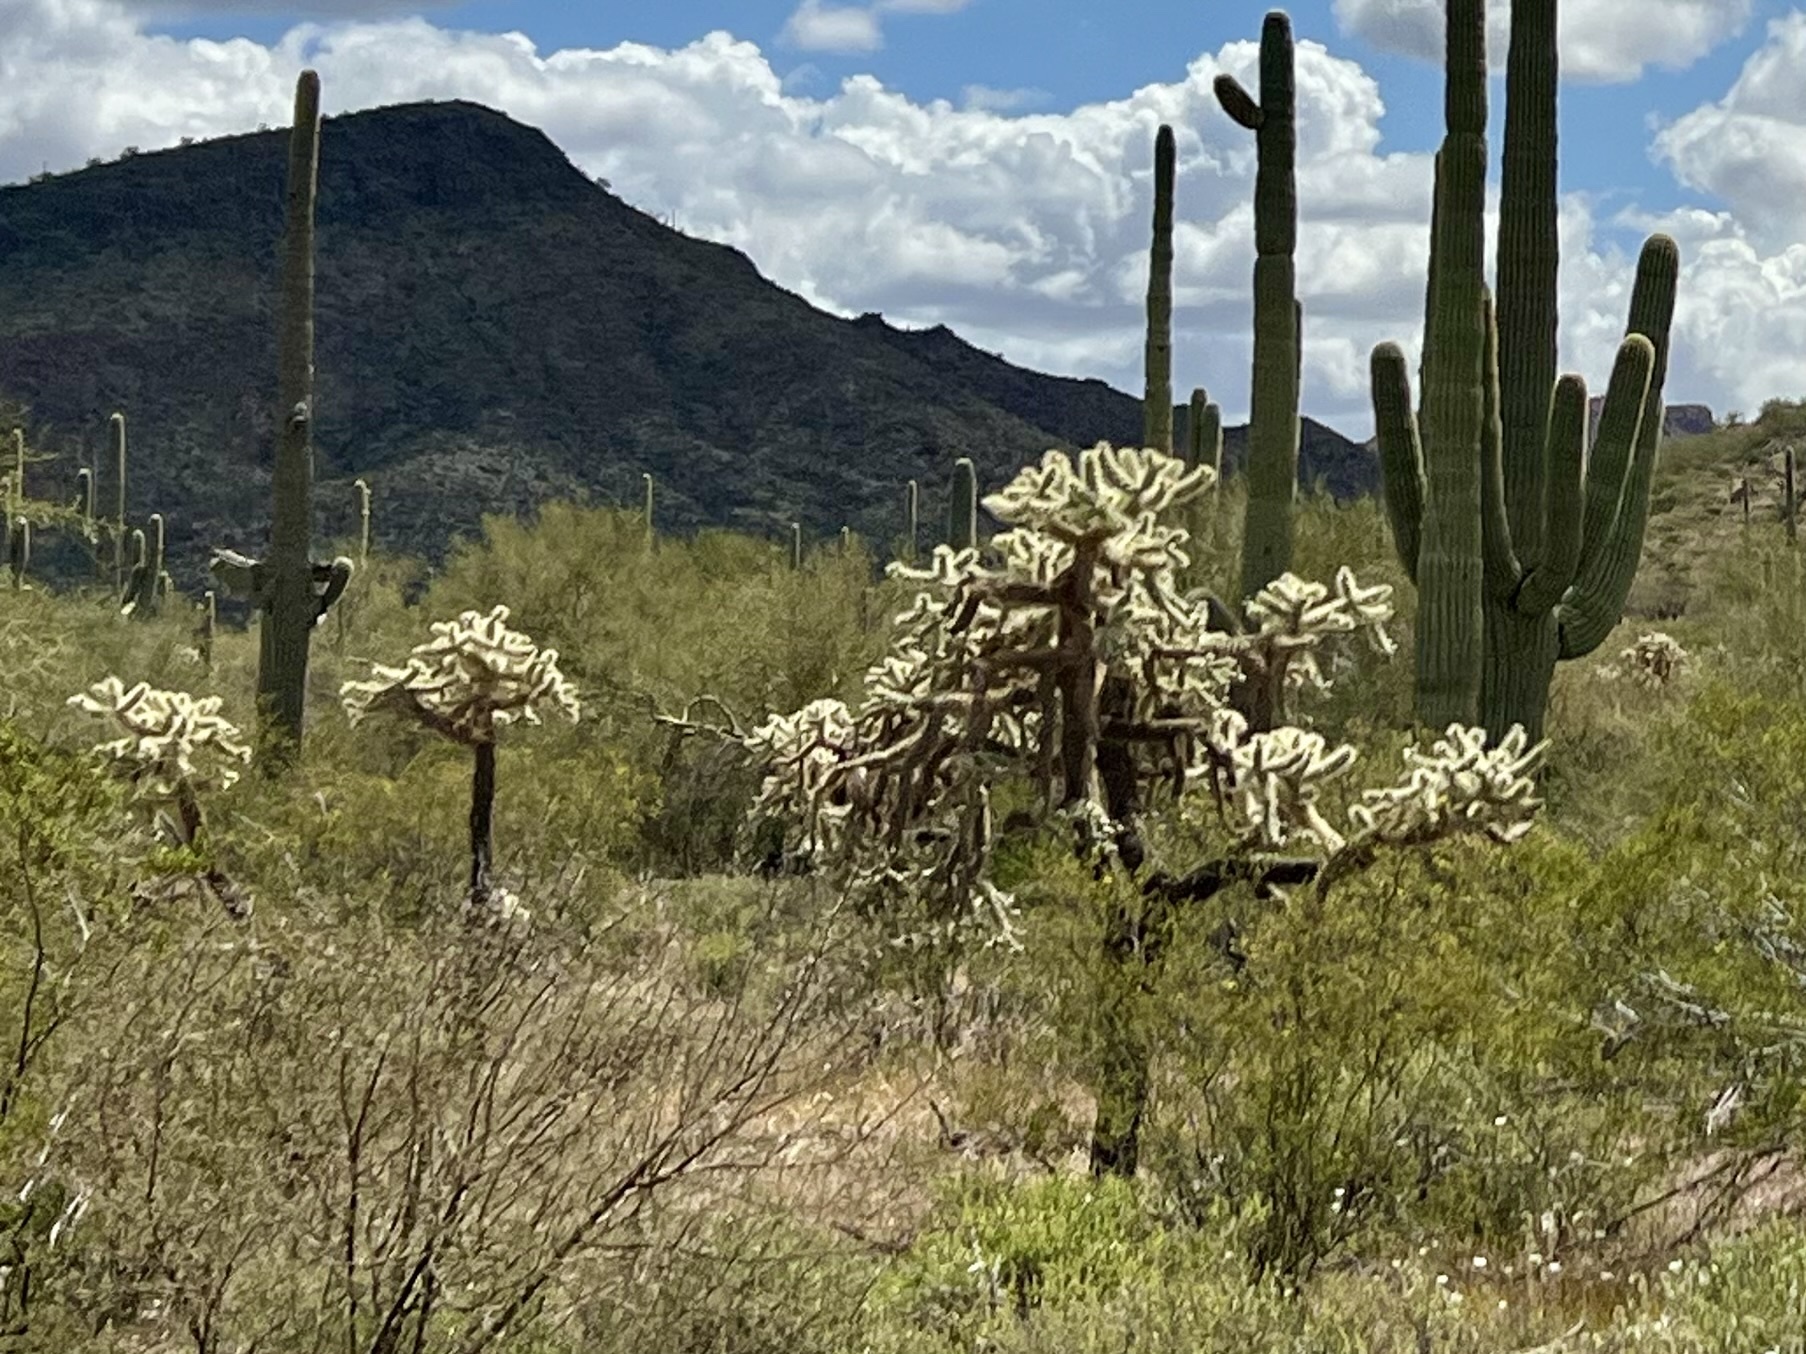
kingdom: Plantae
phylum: Tracheophyta
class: Magnoliopsida
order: Caryophyllales
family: Cactaceae
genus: Cylindropuntia
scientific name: Cylindropuntia fulgida
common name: Jumping cholla
